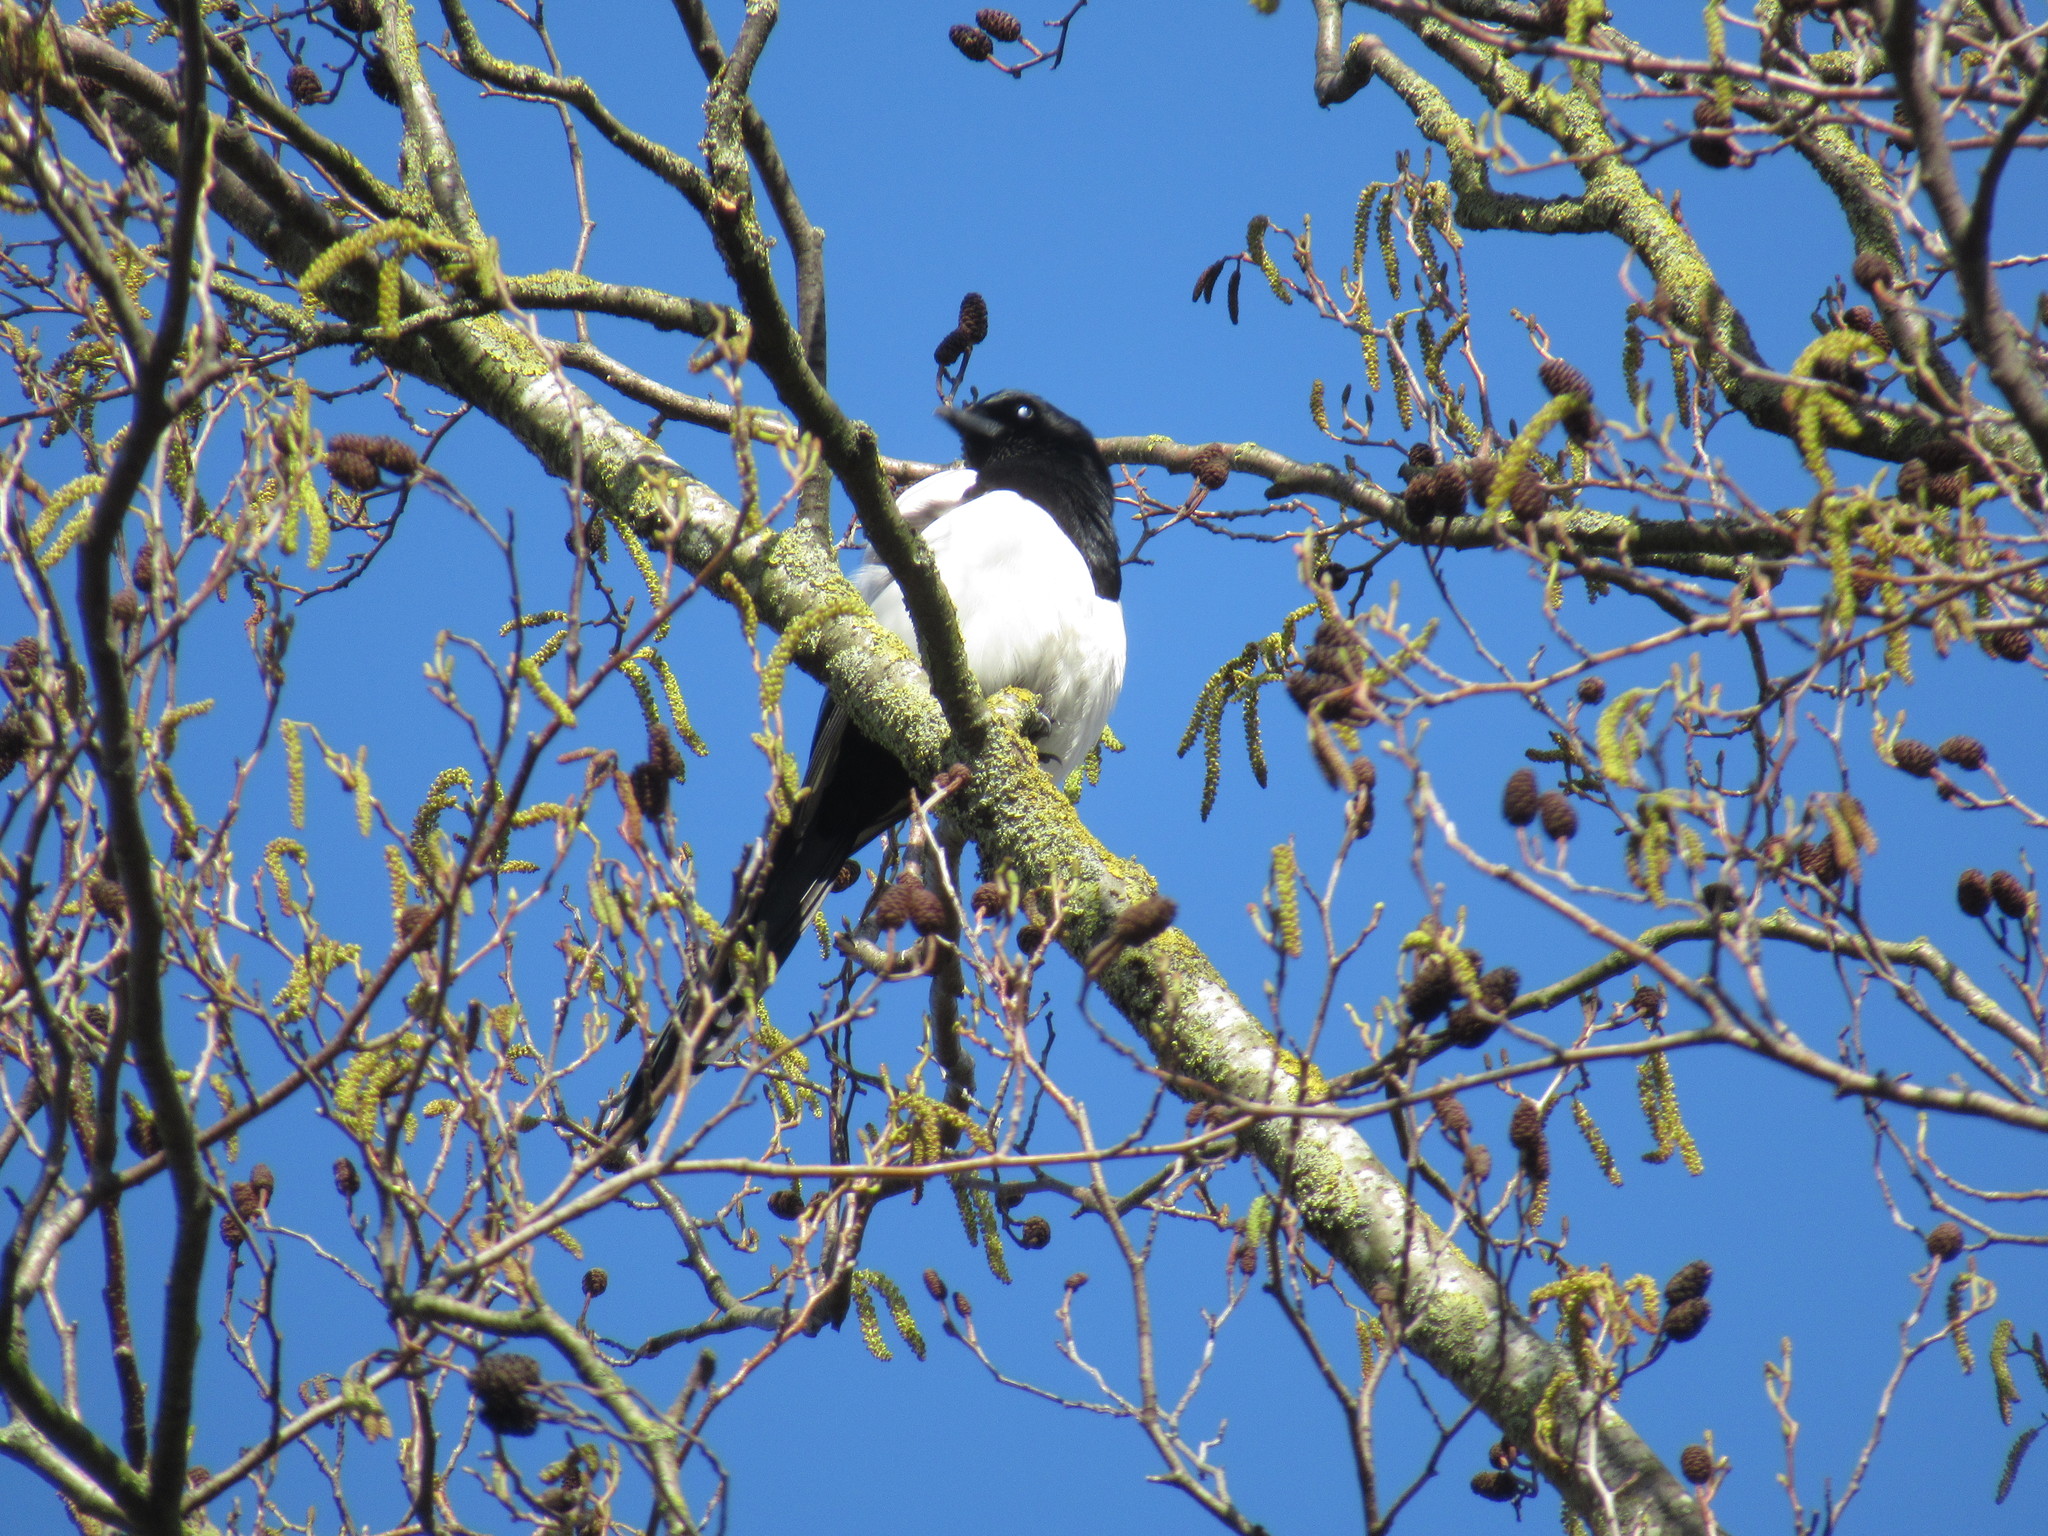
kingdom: Animalia
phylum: Chordata
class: Aves
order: Passeriformes
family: Corvidae
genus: Pica
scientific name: Pica pica
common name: Eurasian magpie
